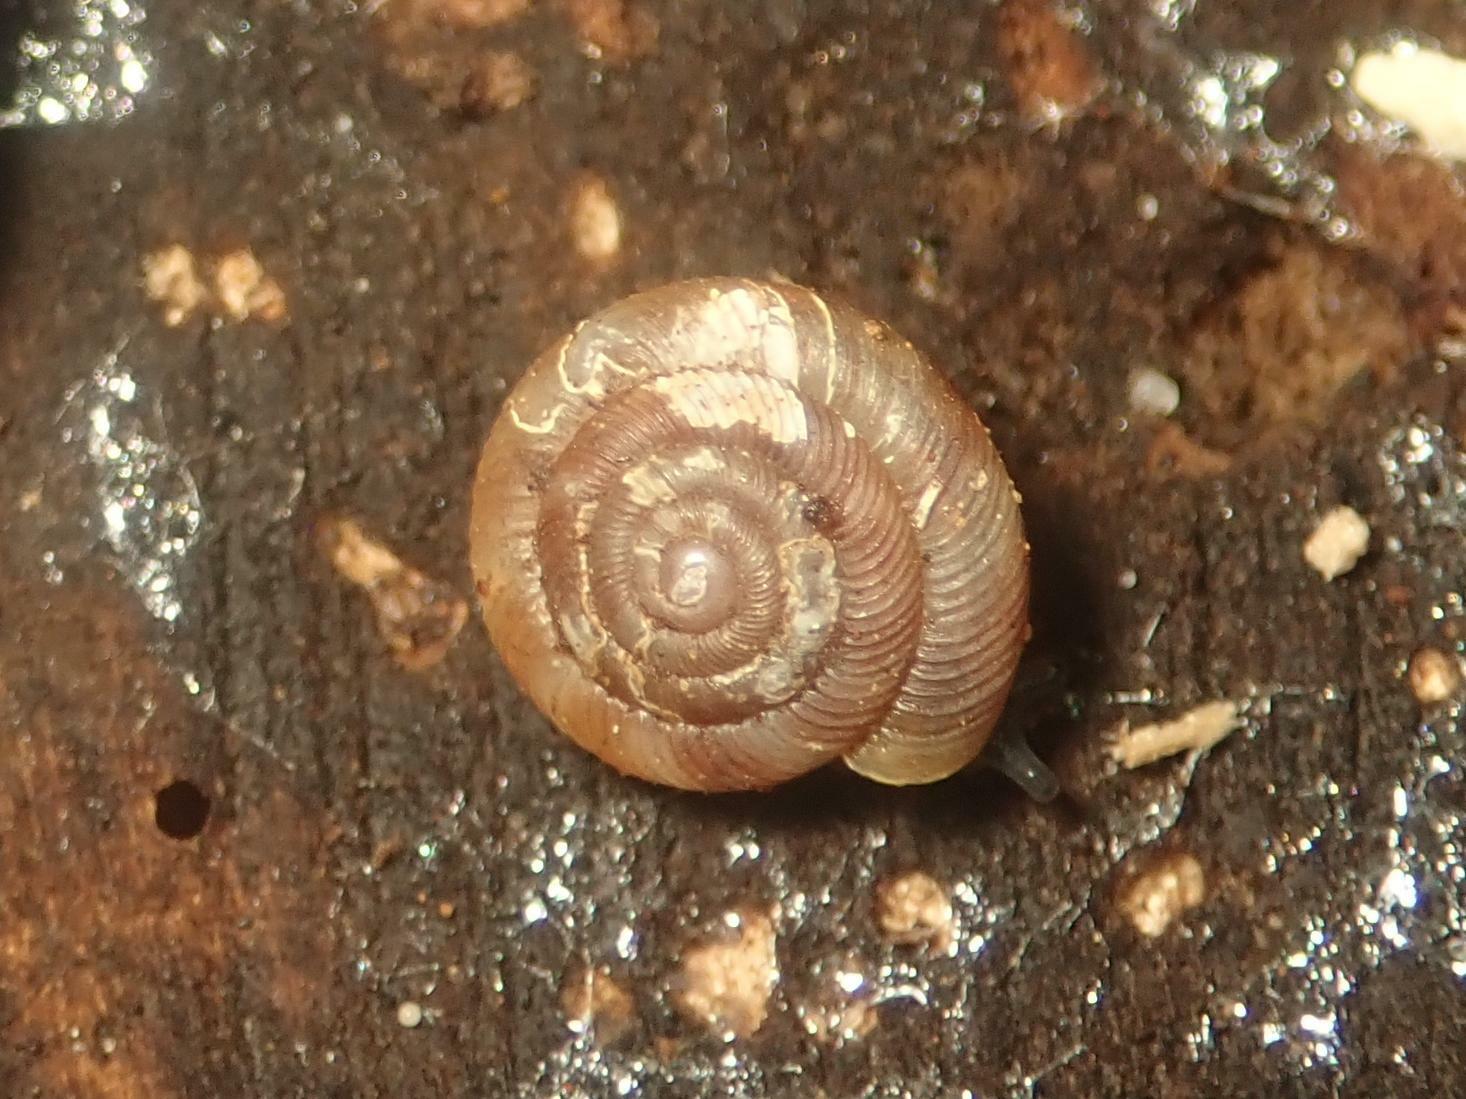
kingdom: Animalia
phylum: Mollusca
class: Gastropoda
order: Stylommatophora
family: Discidae
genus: Discus
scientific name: Discus rotundatus
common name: Rounded snail
